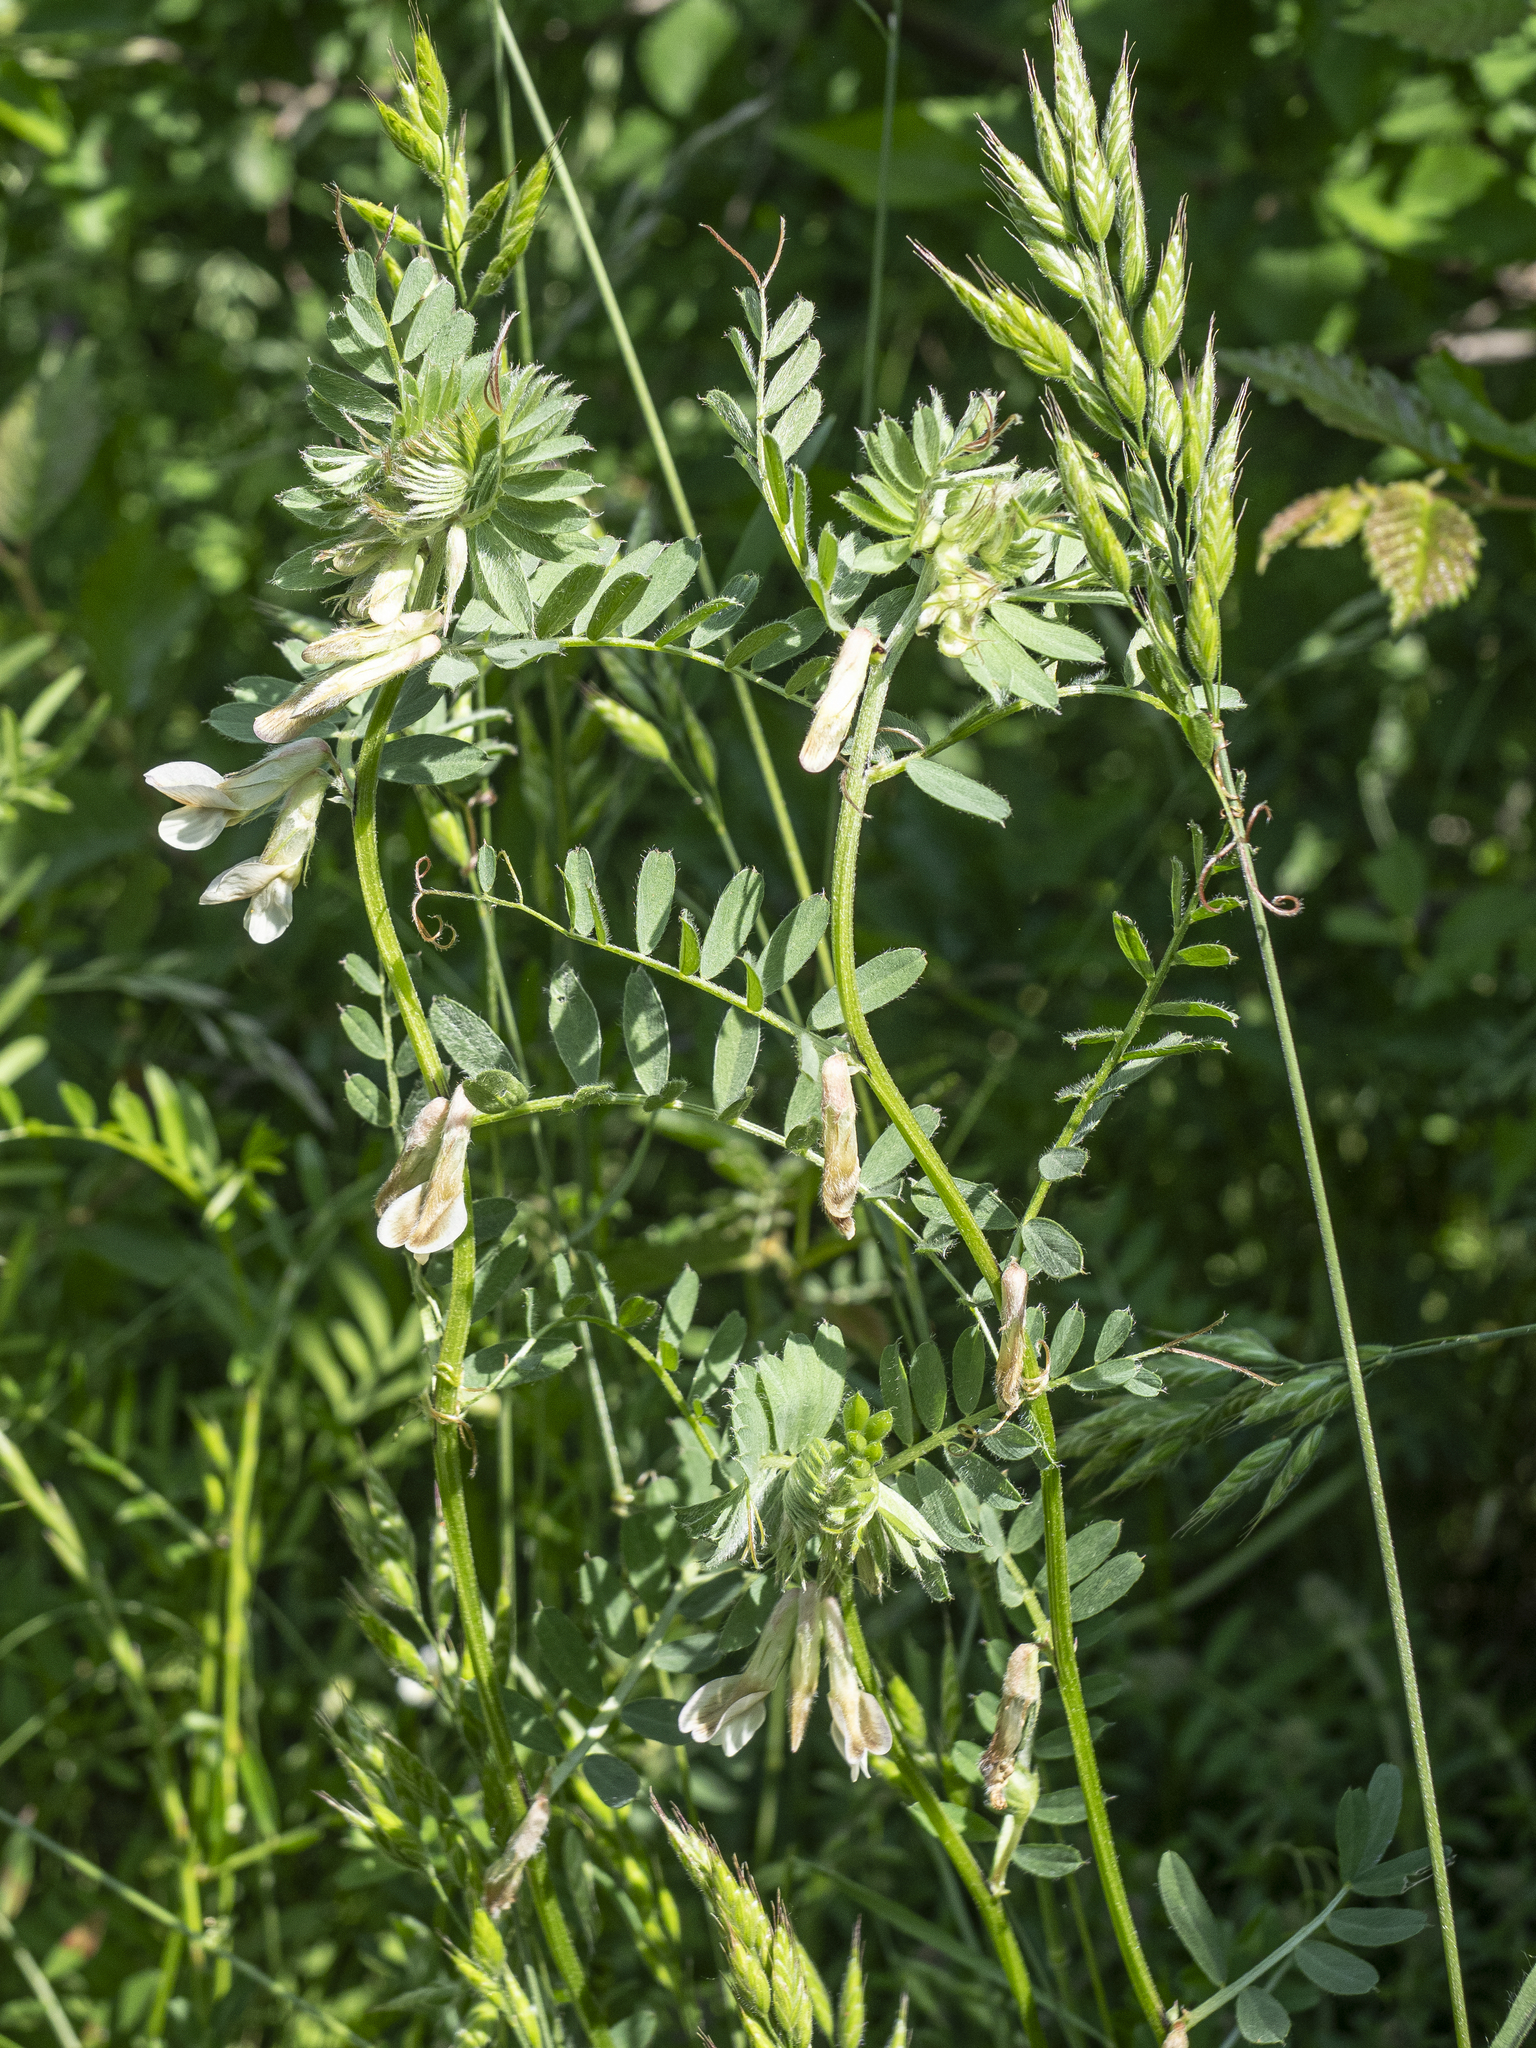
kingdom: Plantae
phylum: Tracheophyta
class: Magnoliopsida
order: Fabales
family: Fabaceae
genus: Vicia
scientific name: Vicia pannonica
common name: Hungarian vetch
